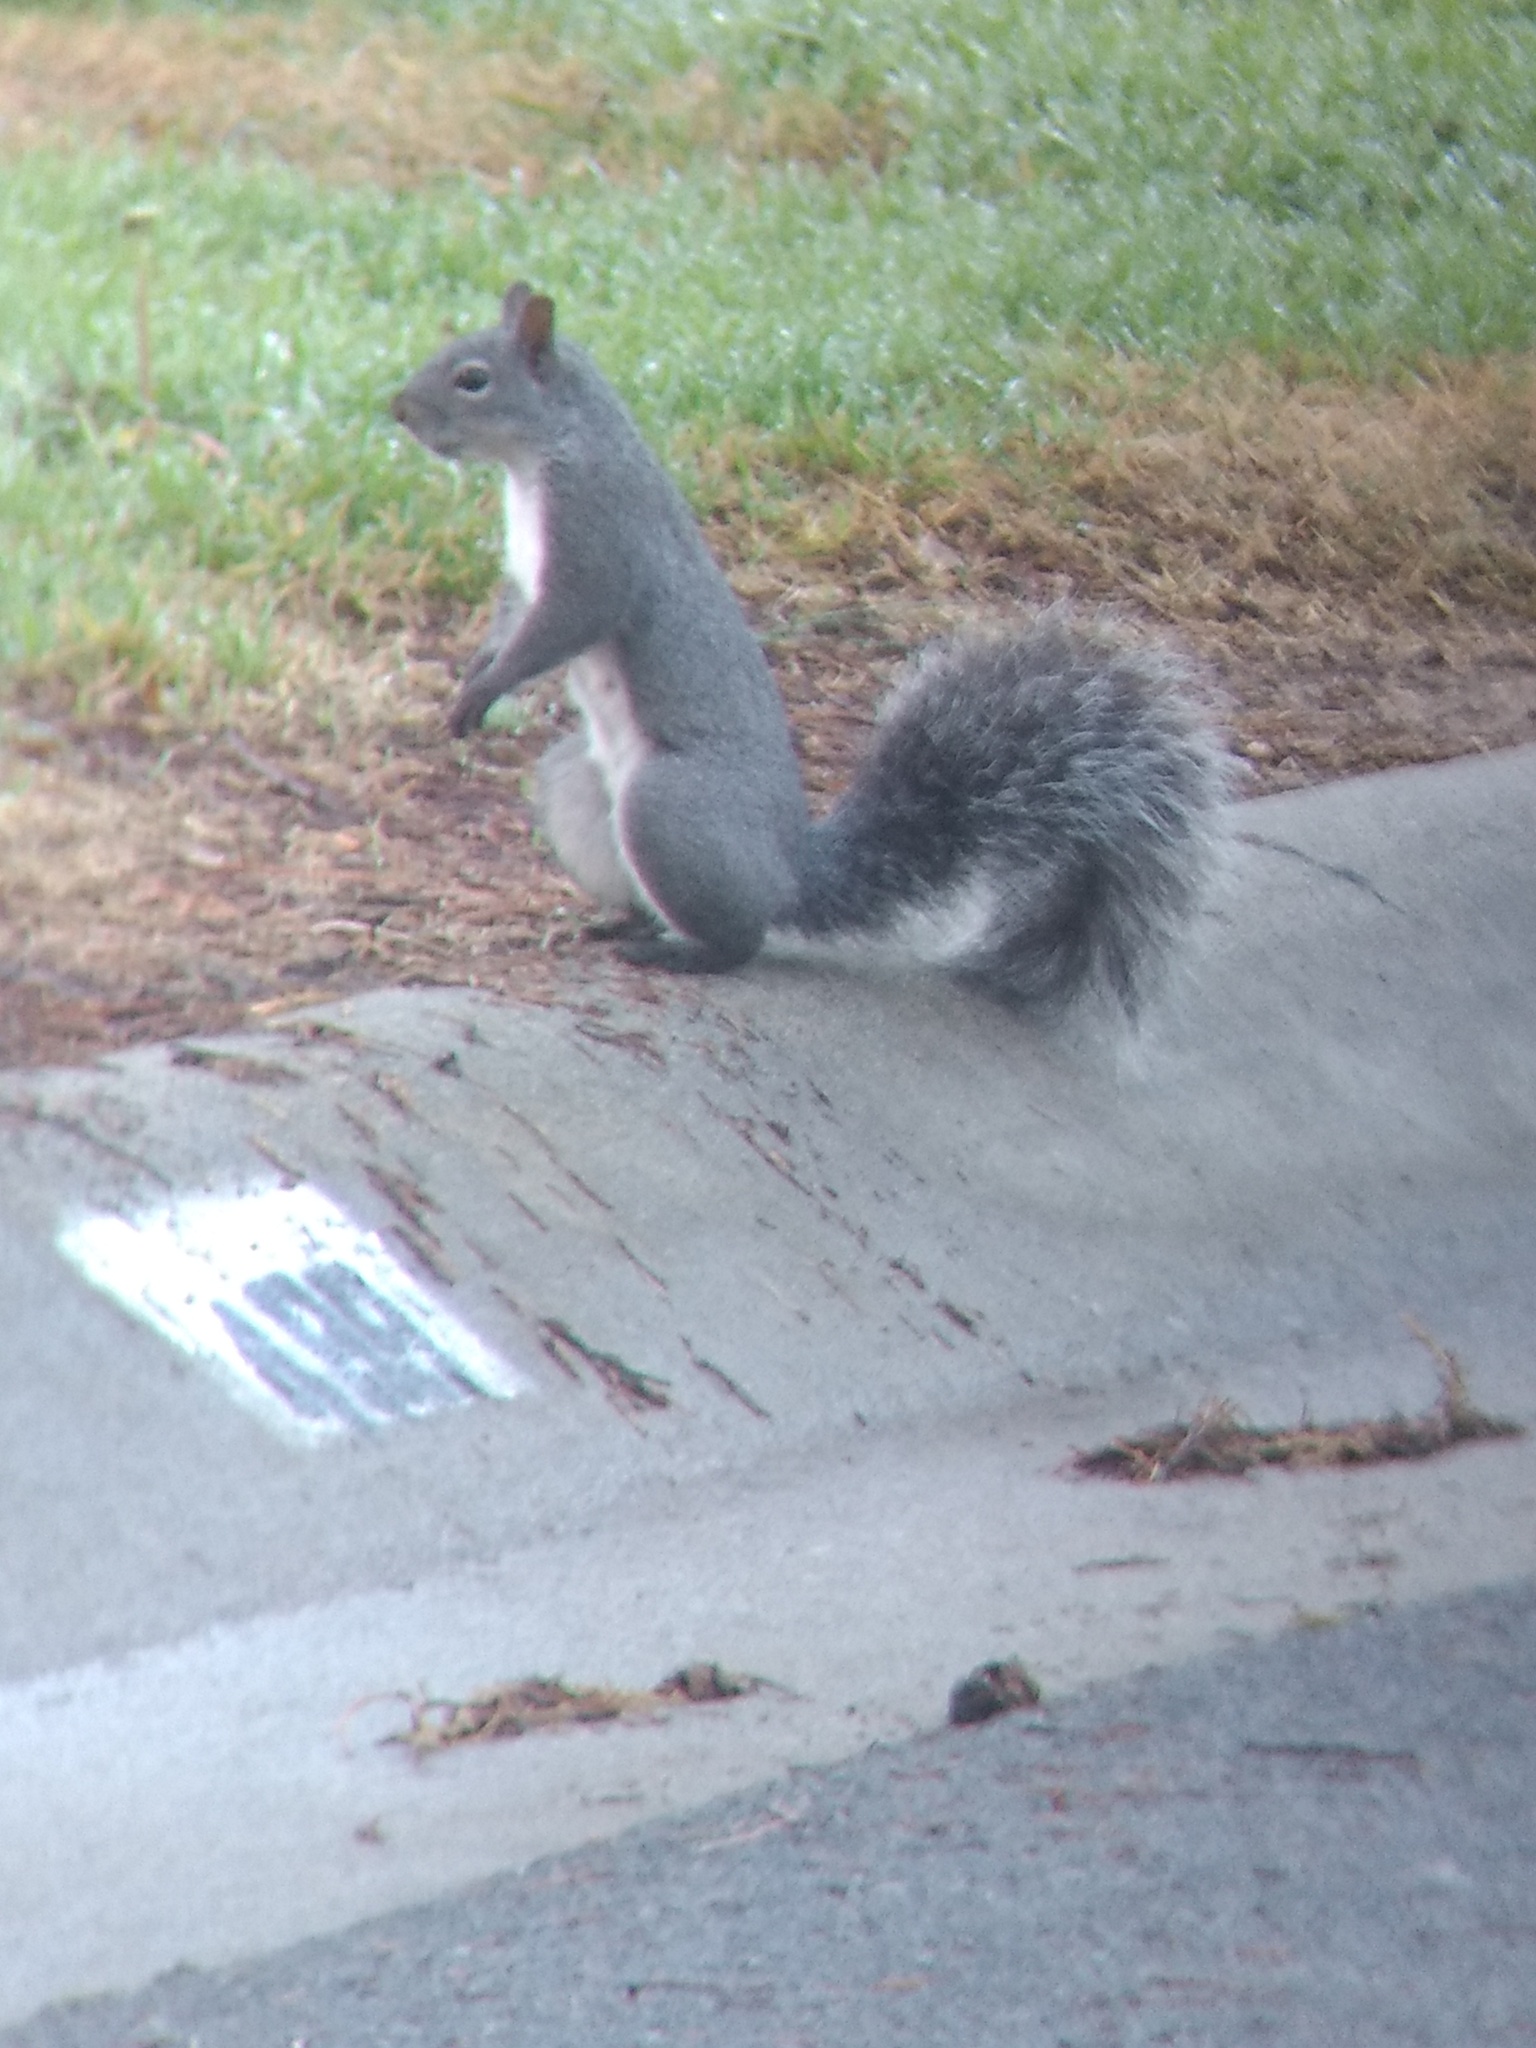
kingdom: Animalia
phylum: Chordata
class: Mammalia
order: Rodentia
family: Sciuridae
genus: Sciurus
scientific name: Sciurus griseus
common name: Western gray squirrel
